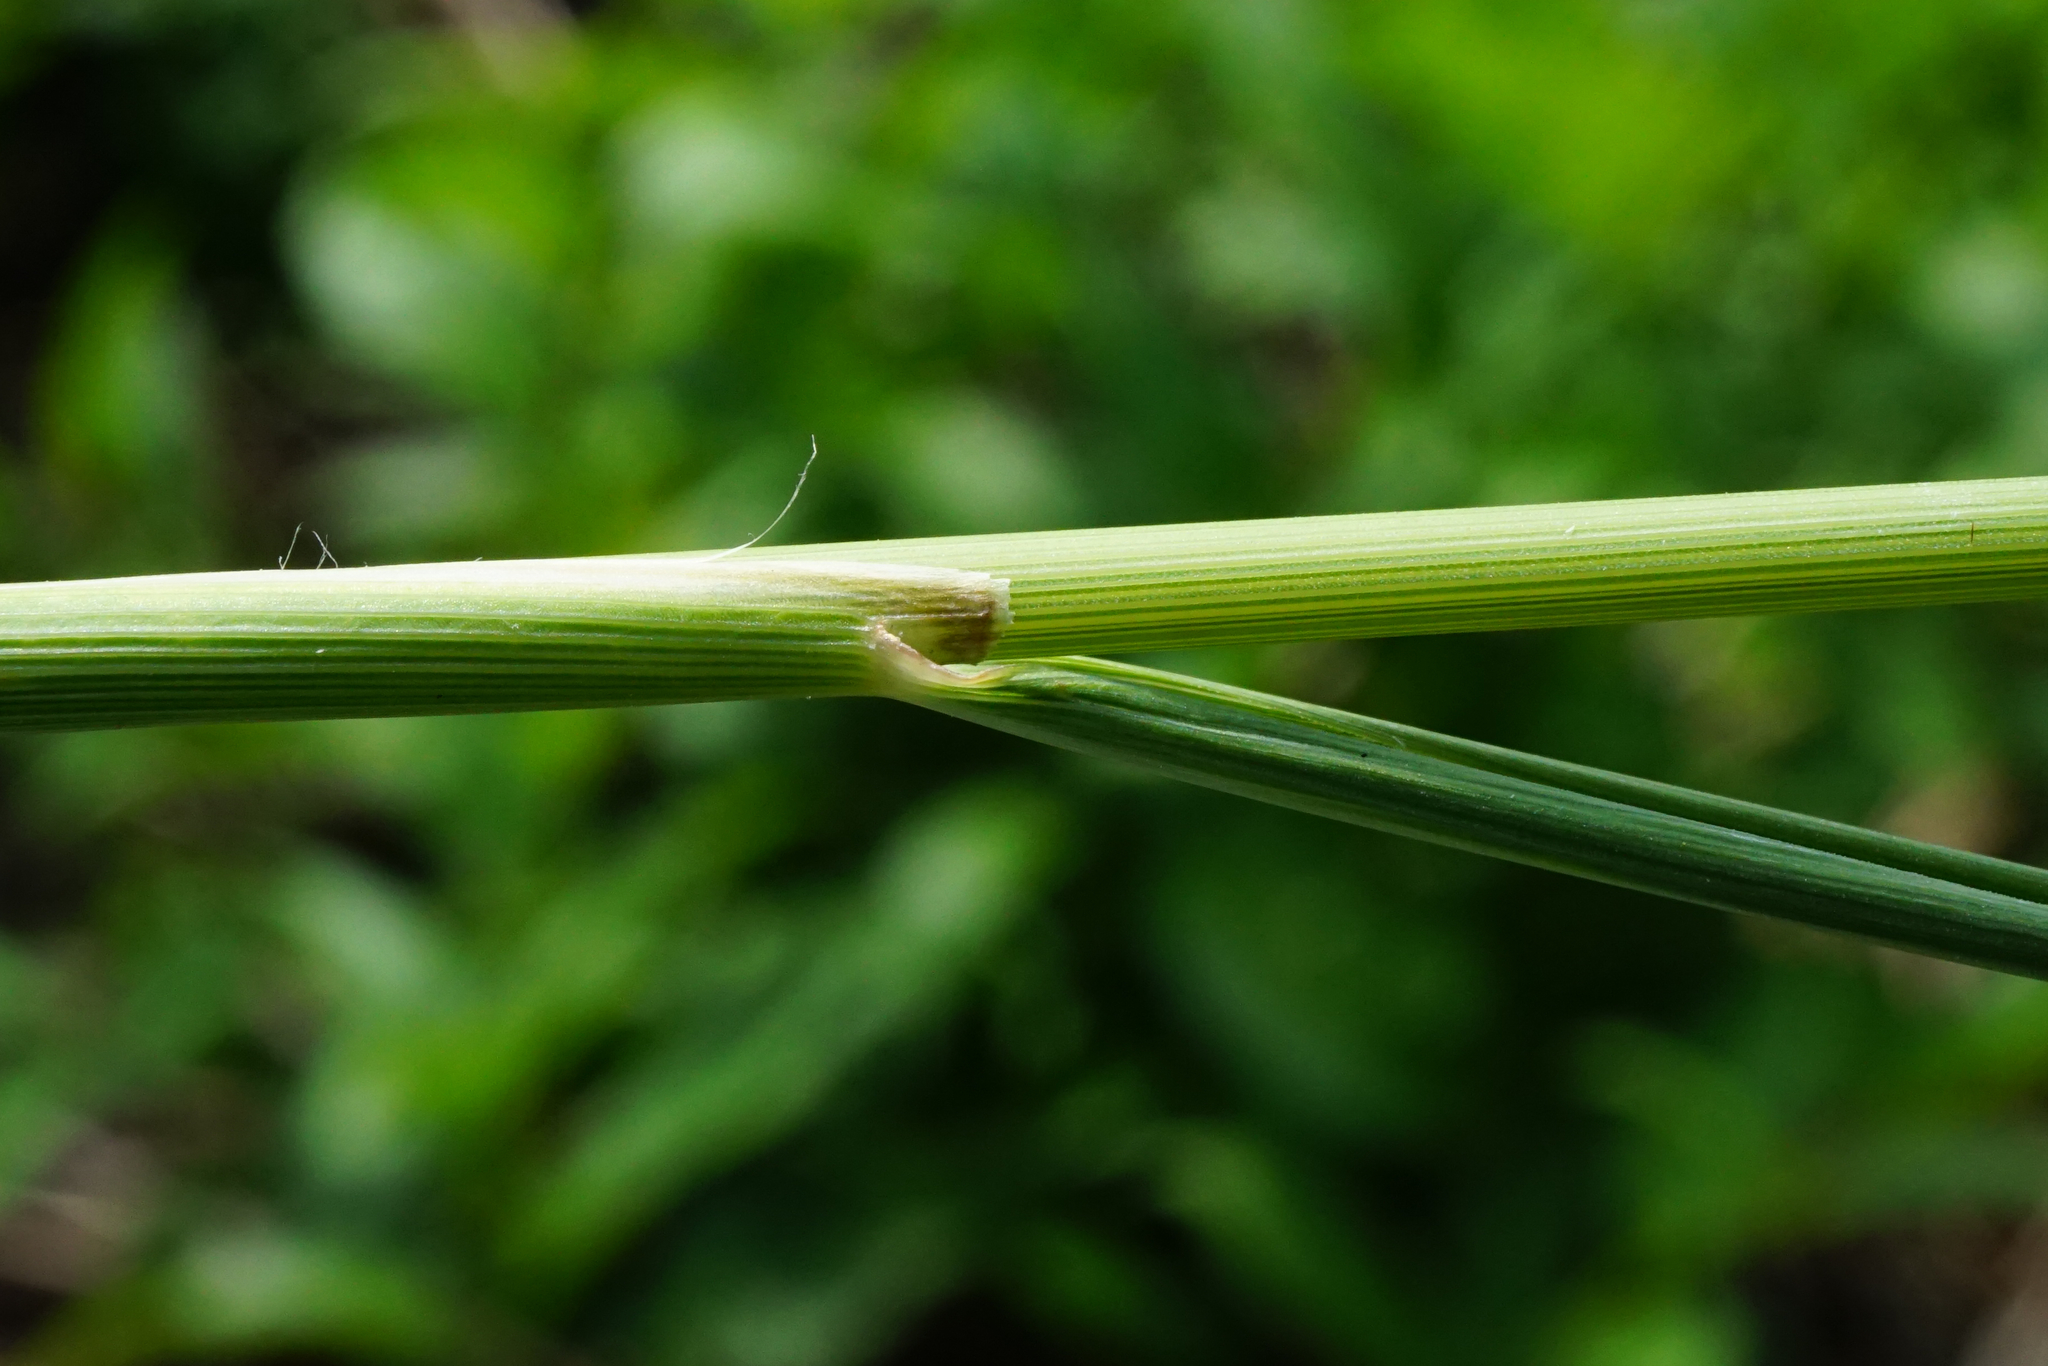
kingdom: Plantae
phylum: Tracheophyta
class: Liliopsida
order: Poales
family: Poaceae
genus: Calamagrostis
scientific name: Calamagrostis epigejos
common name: Wood small-reed
